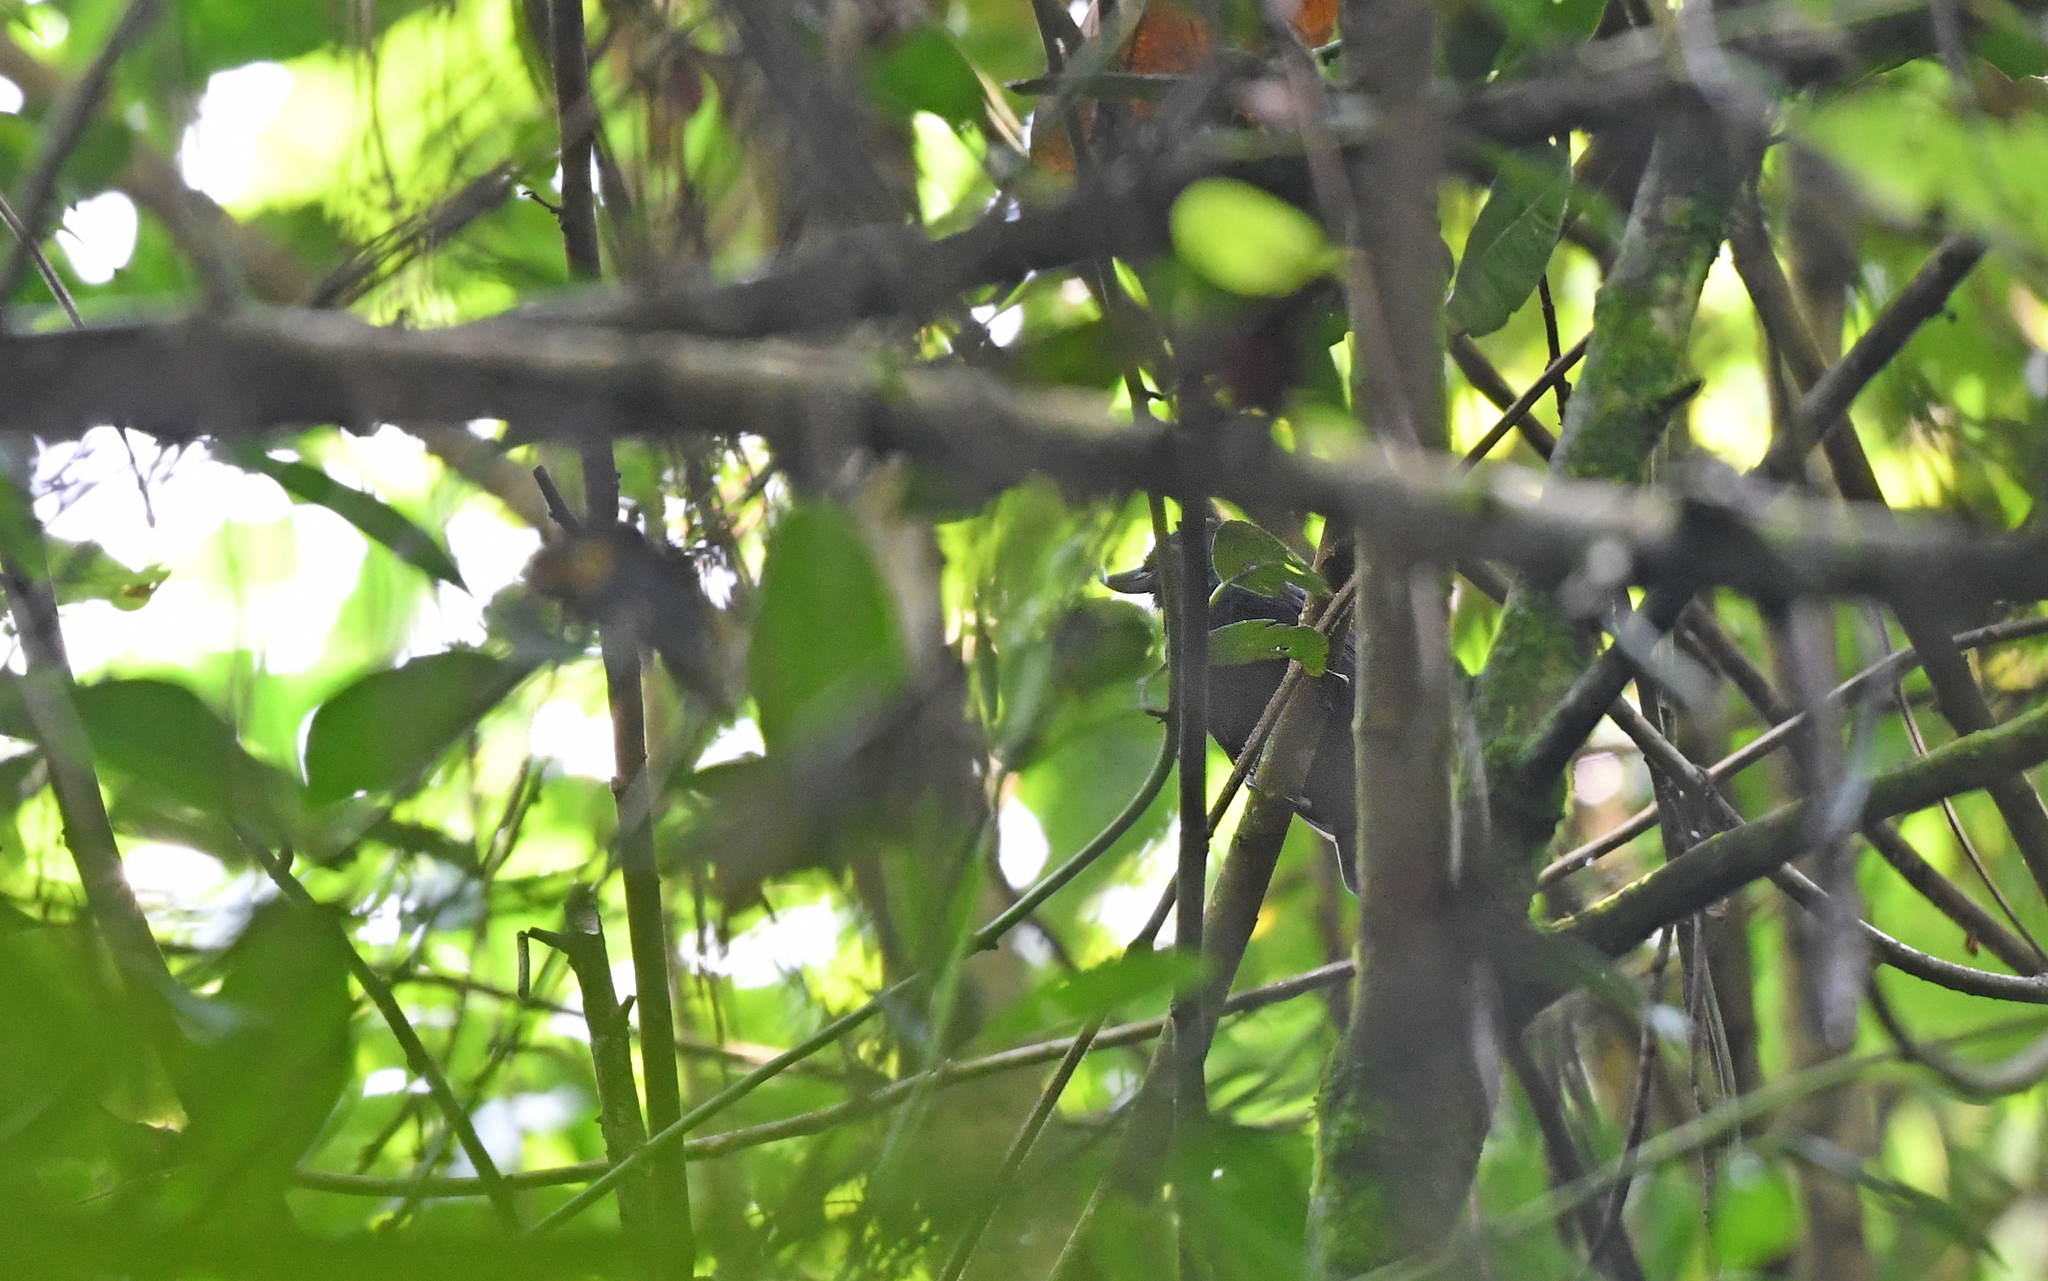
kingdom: Animalia
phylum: Chordata
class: Aves
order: Passeriformes
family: Thamnophilidae
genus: Clytoctantes
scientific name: Clytoctantes alixii
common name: Recurve-billed bushbird
